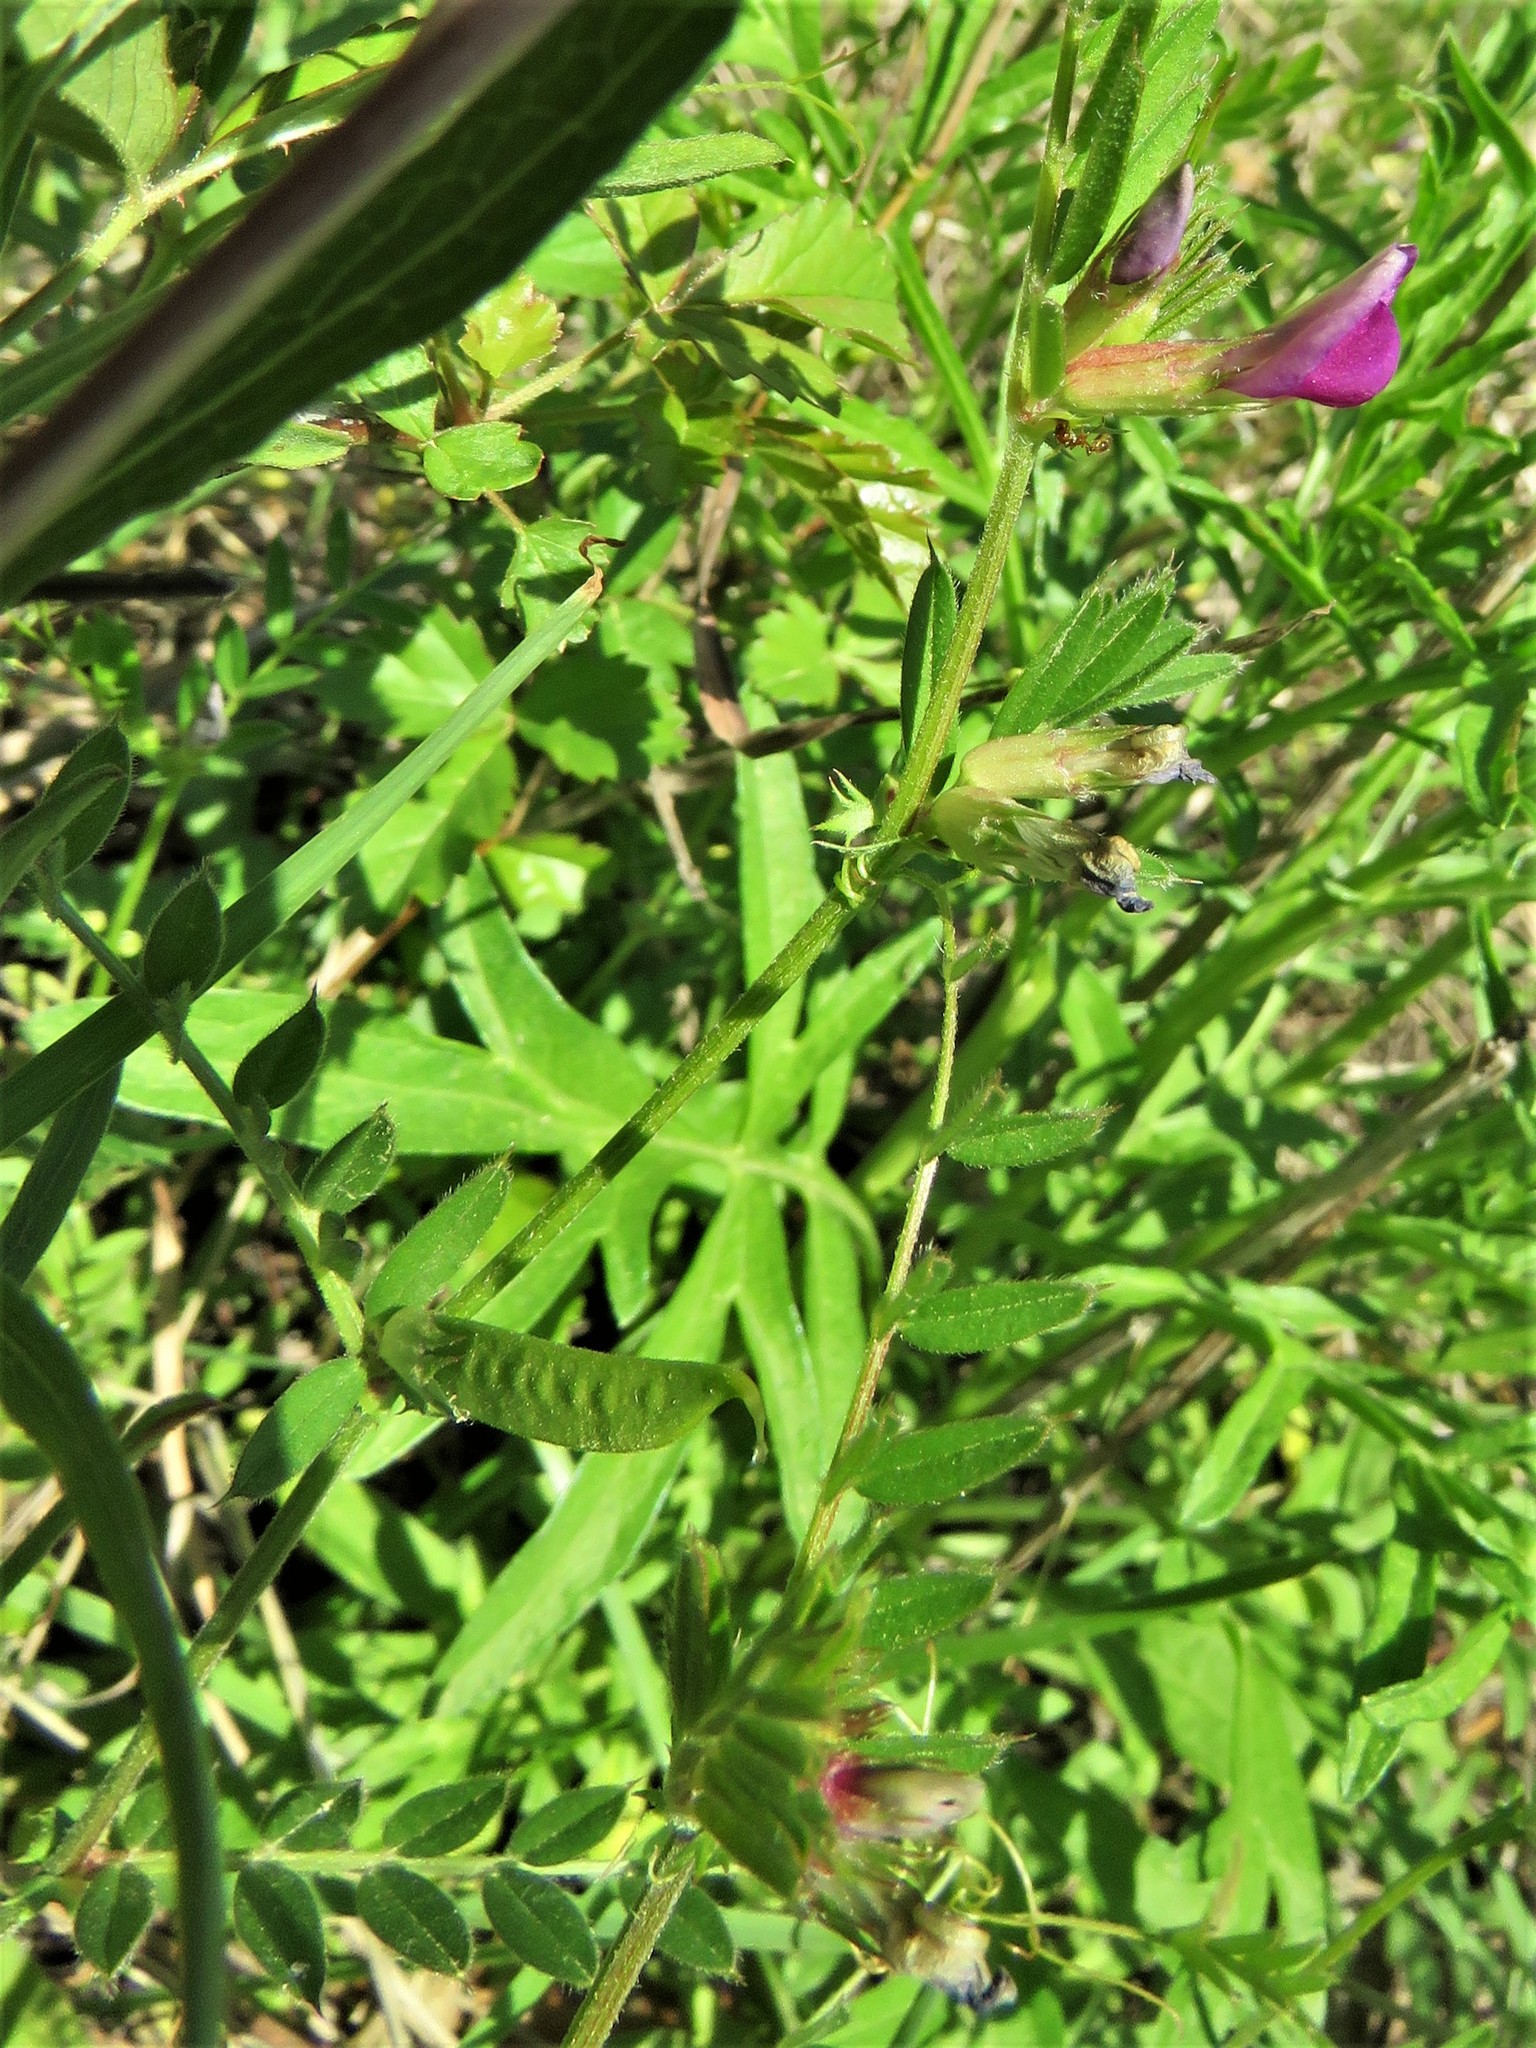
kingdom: Plantae
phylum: Tracheophyta
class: Magnoliopsida
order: Fabales
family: Fabaceae
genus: Vicia
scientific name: Vicia sativa
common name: Garden vetch
